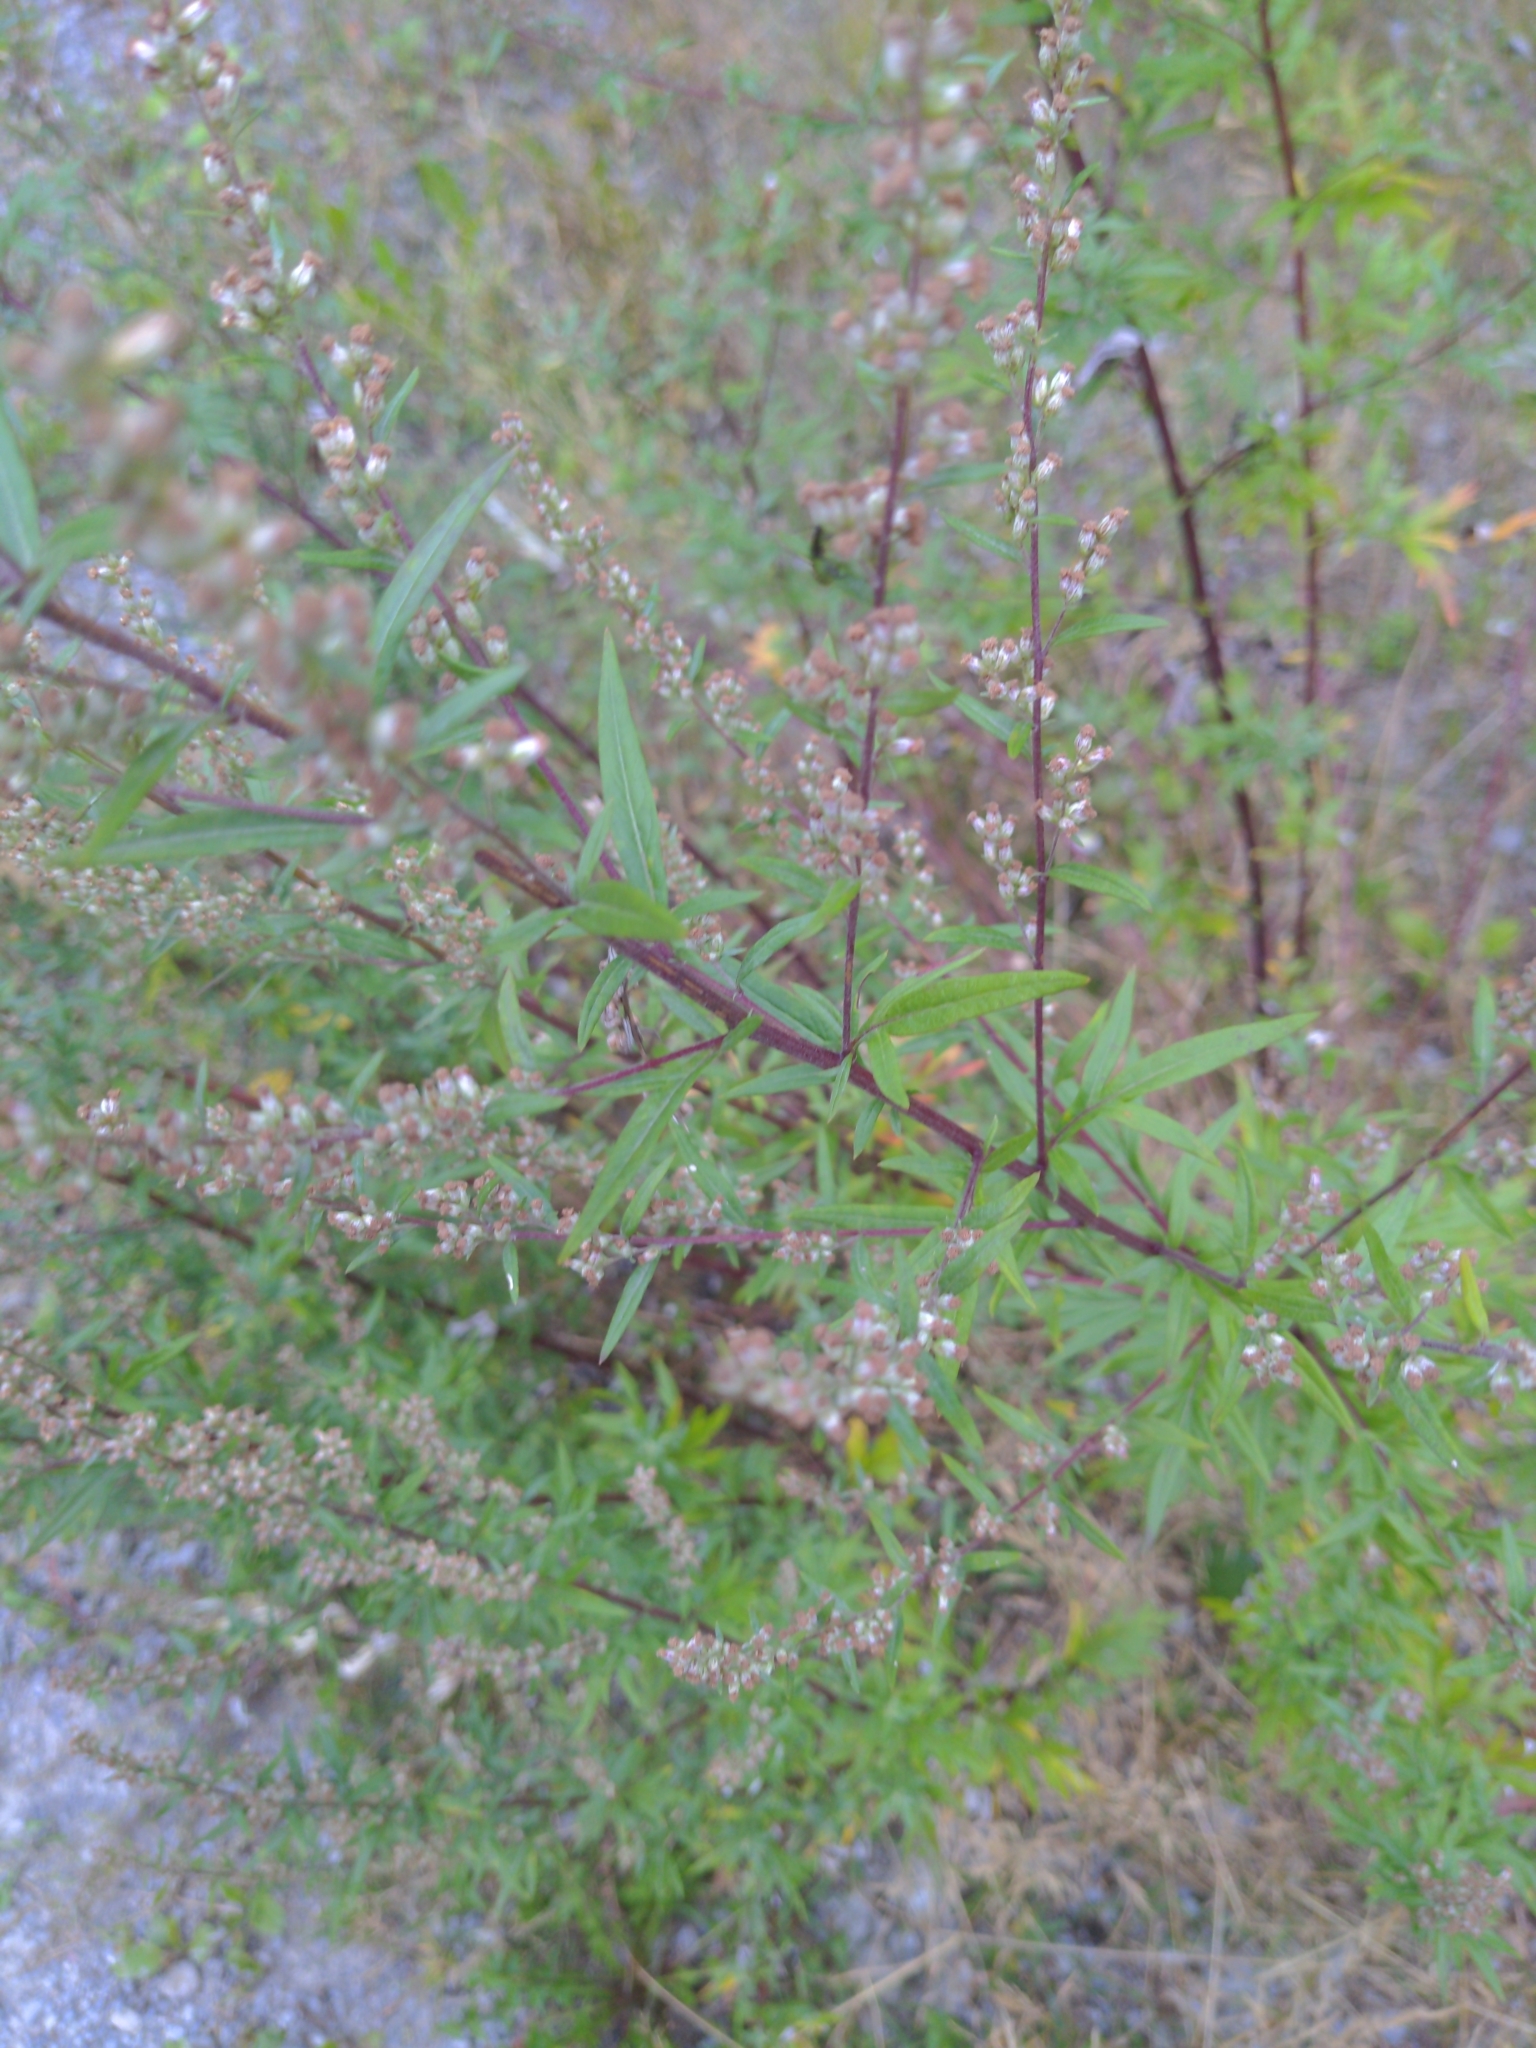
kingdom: Plantae
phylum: Tracheophyta
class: Magnoliopsida
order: Asterales
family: Asteraceae
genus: Artemisia
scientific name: Artemisia vulgaris
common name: Mugwort
